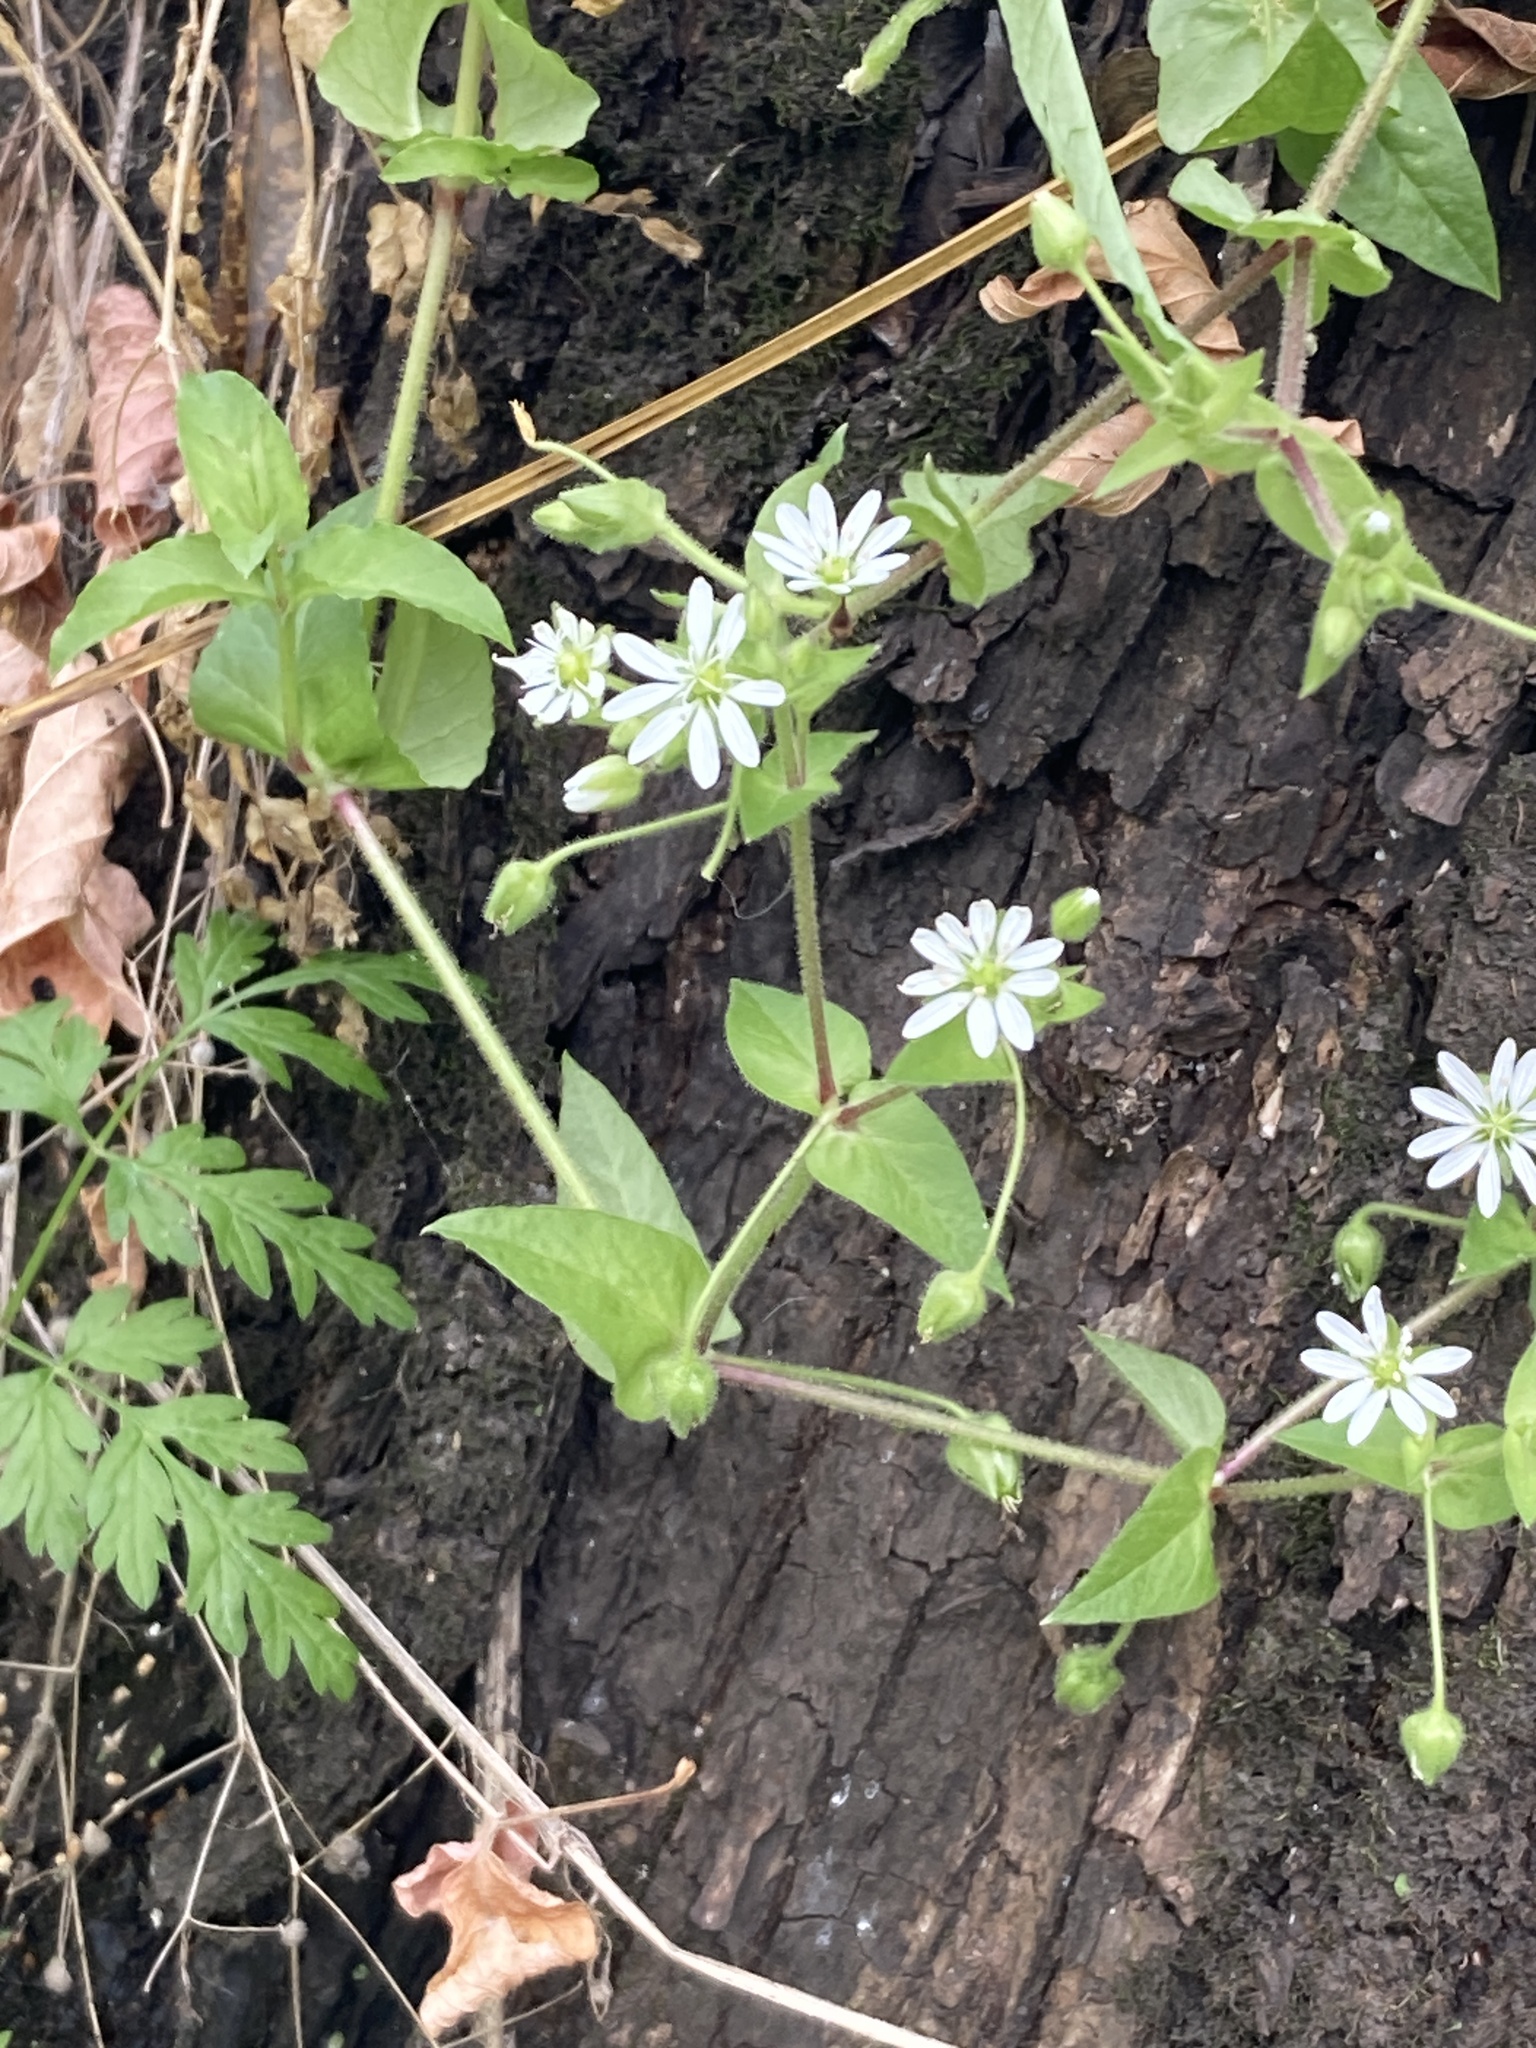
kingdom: Plantae
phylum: Tracheophyta
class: Magnoliopsida
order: Caryophyllales
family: Caryophyllaceae
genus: Stellaria
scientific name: Stellaria aquatica
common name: Water chickweed
